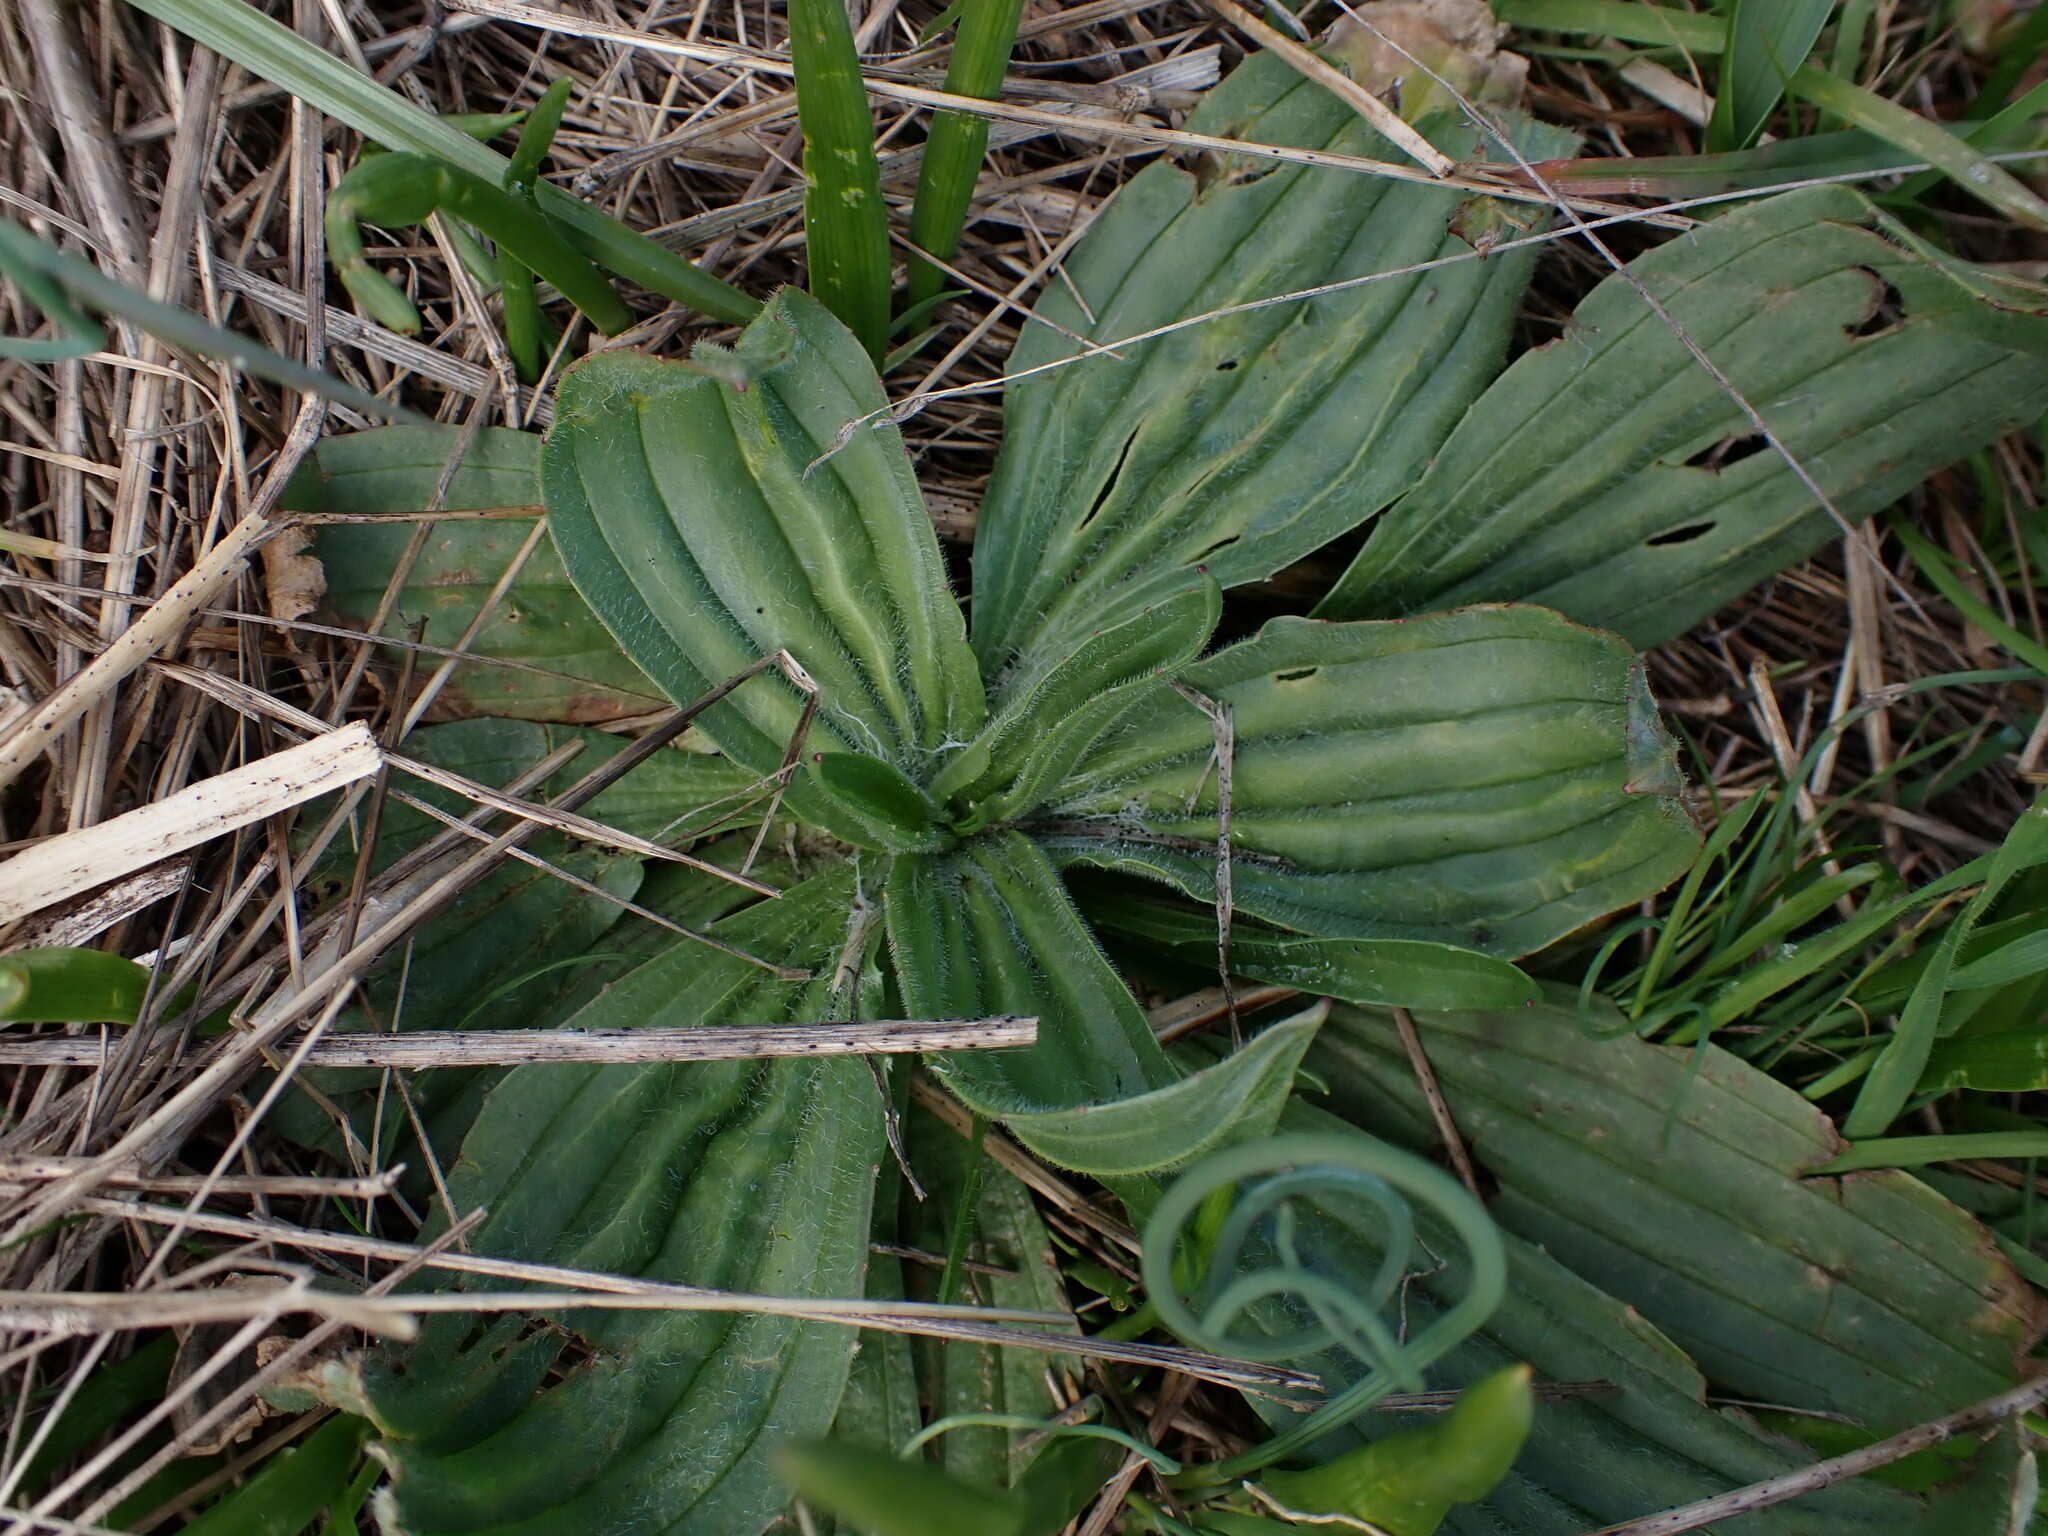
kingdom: Plantae
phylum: Tracheophyta
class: Magnoliopsida
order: Lamiales
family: Plantaginaceae
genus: Plantago
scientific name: Plantago lanceolata
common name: Ribwort plantain
